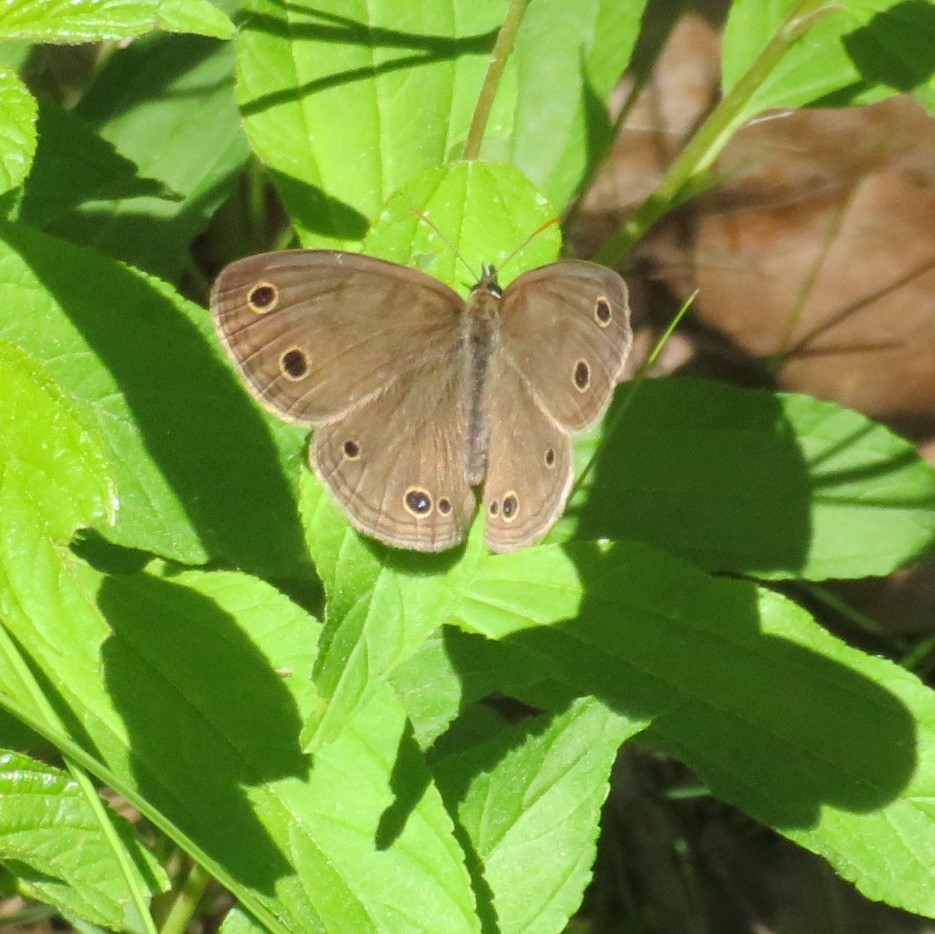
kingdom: Animalia
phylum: Arthropoda
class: Insecta
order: Lepidoptera
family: Nymphalidae
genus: Euptychia
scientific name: Euptychia cymela
